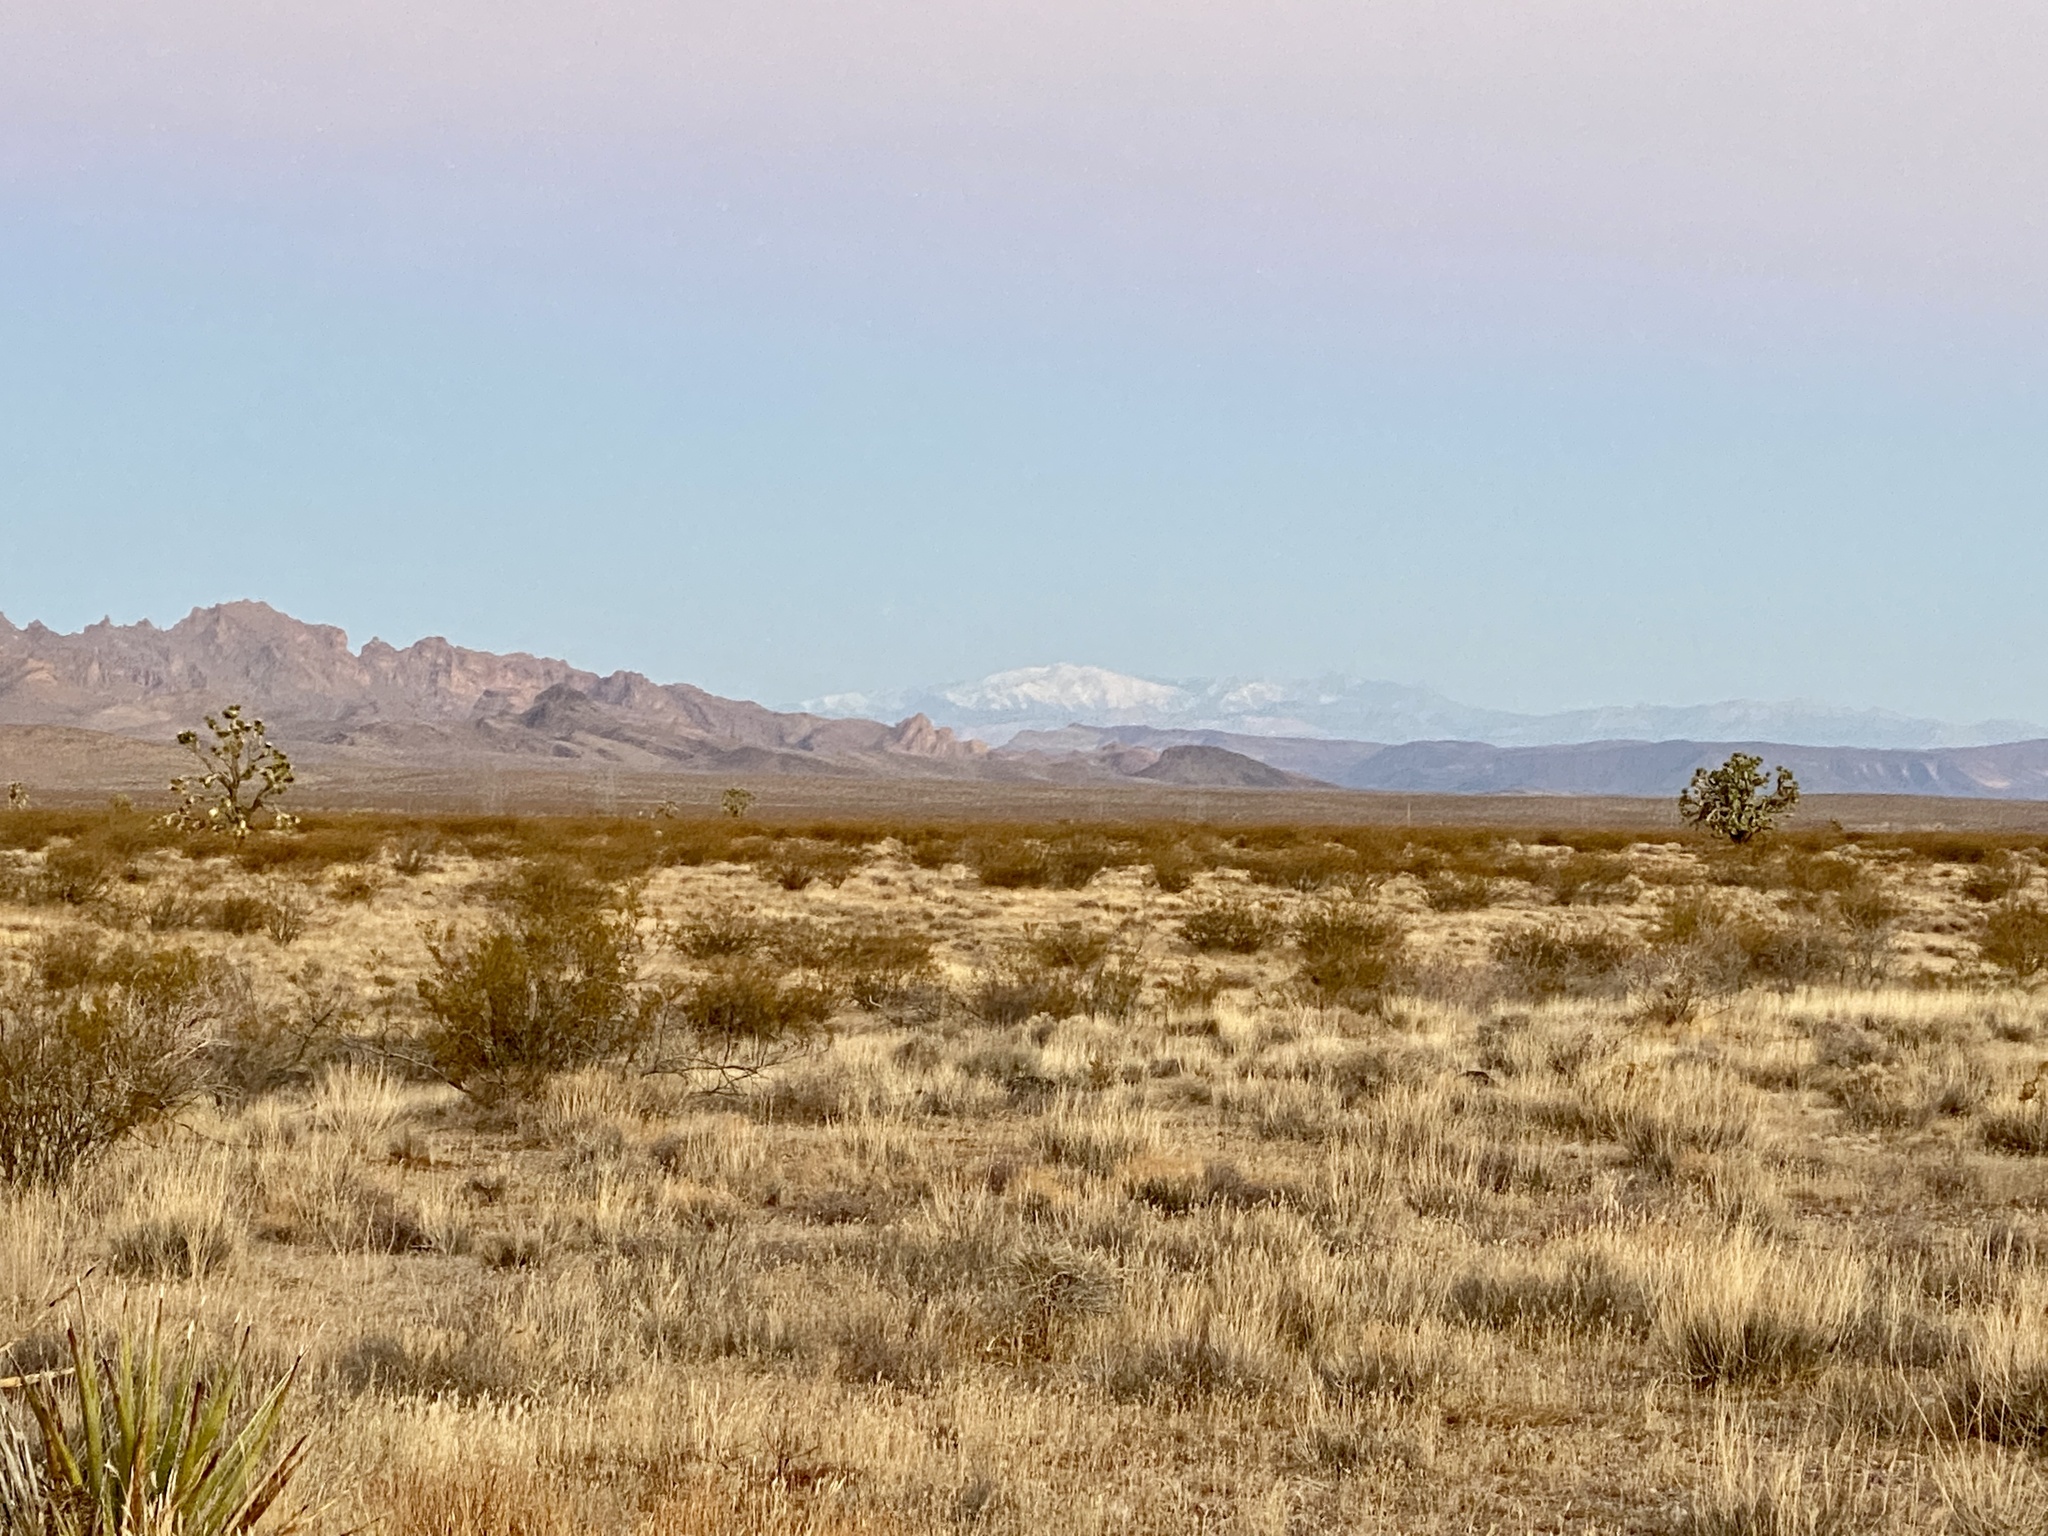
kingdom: Plantae
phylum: Tracheophyta
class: Magnoliopsida
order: Zygophyllales
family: Zygophyllaceae
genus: Larrea
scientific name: Larrea tridentata
